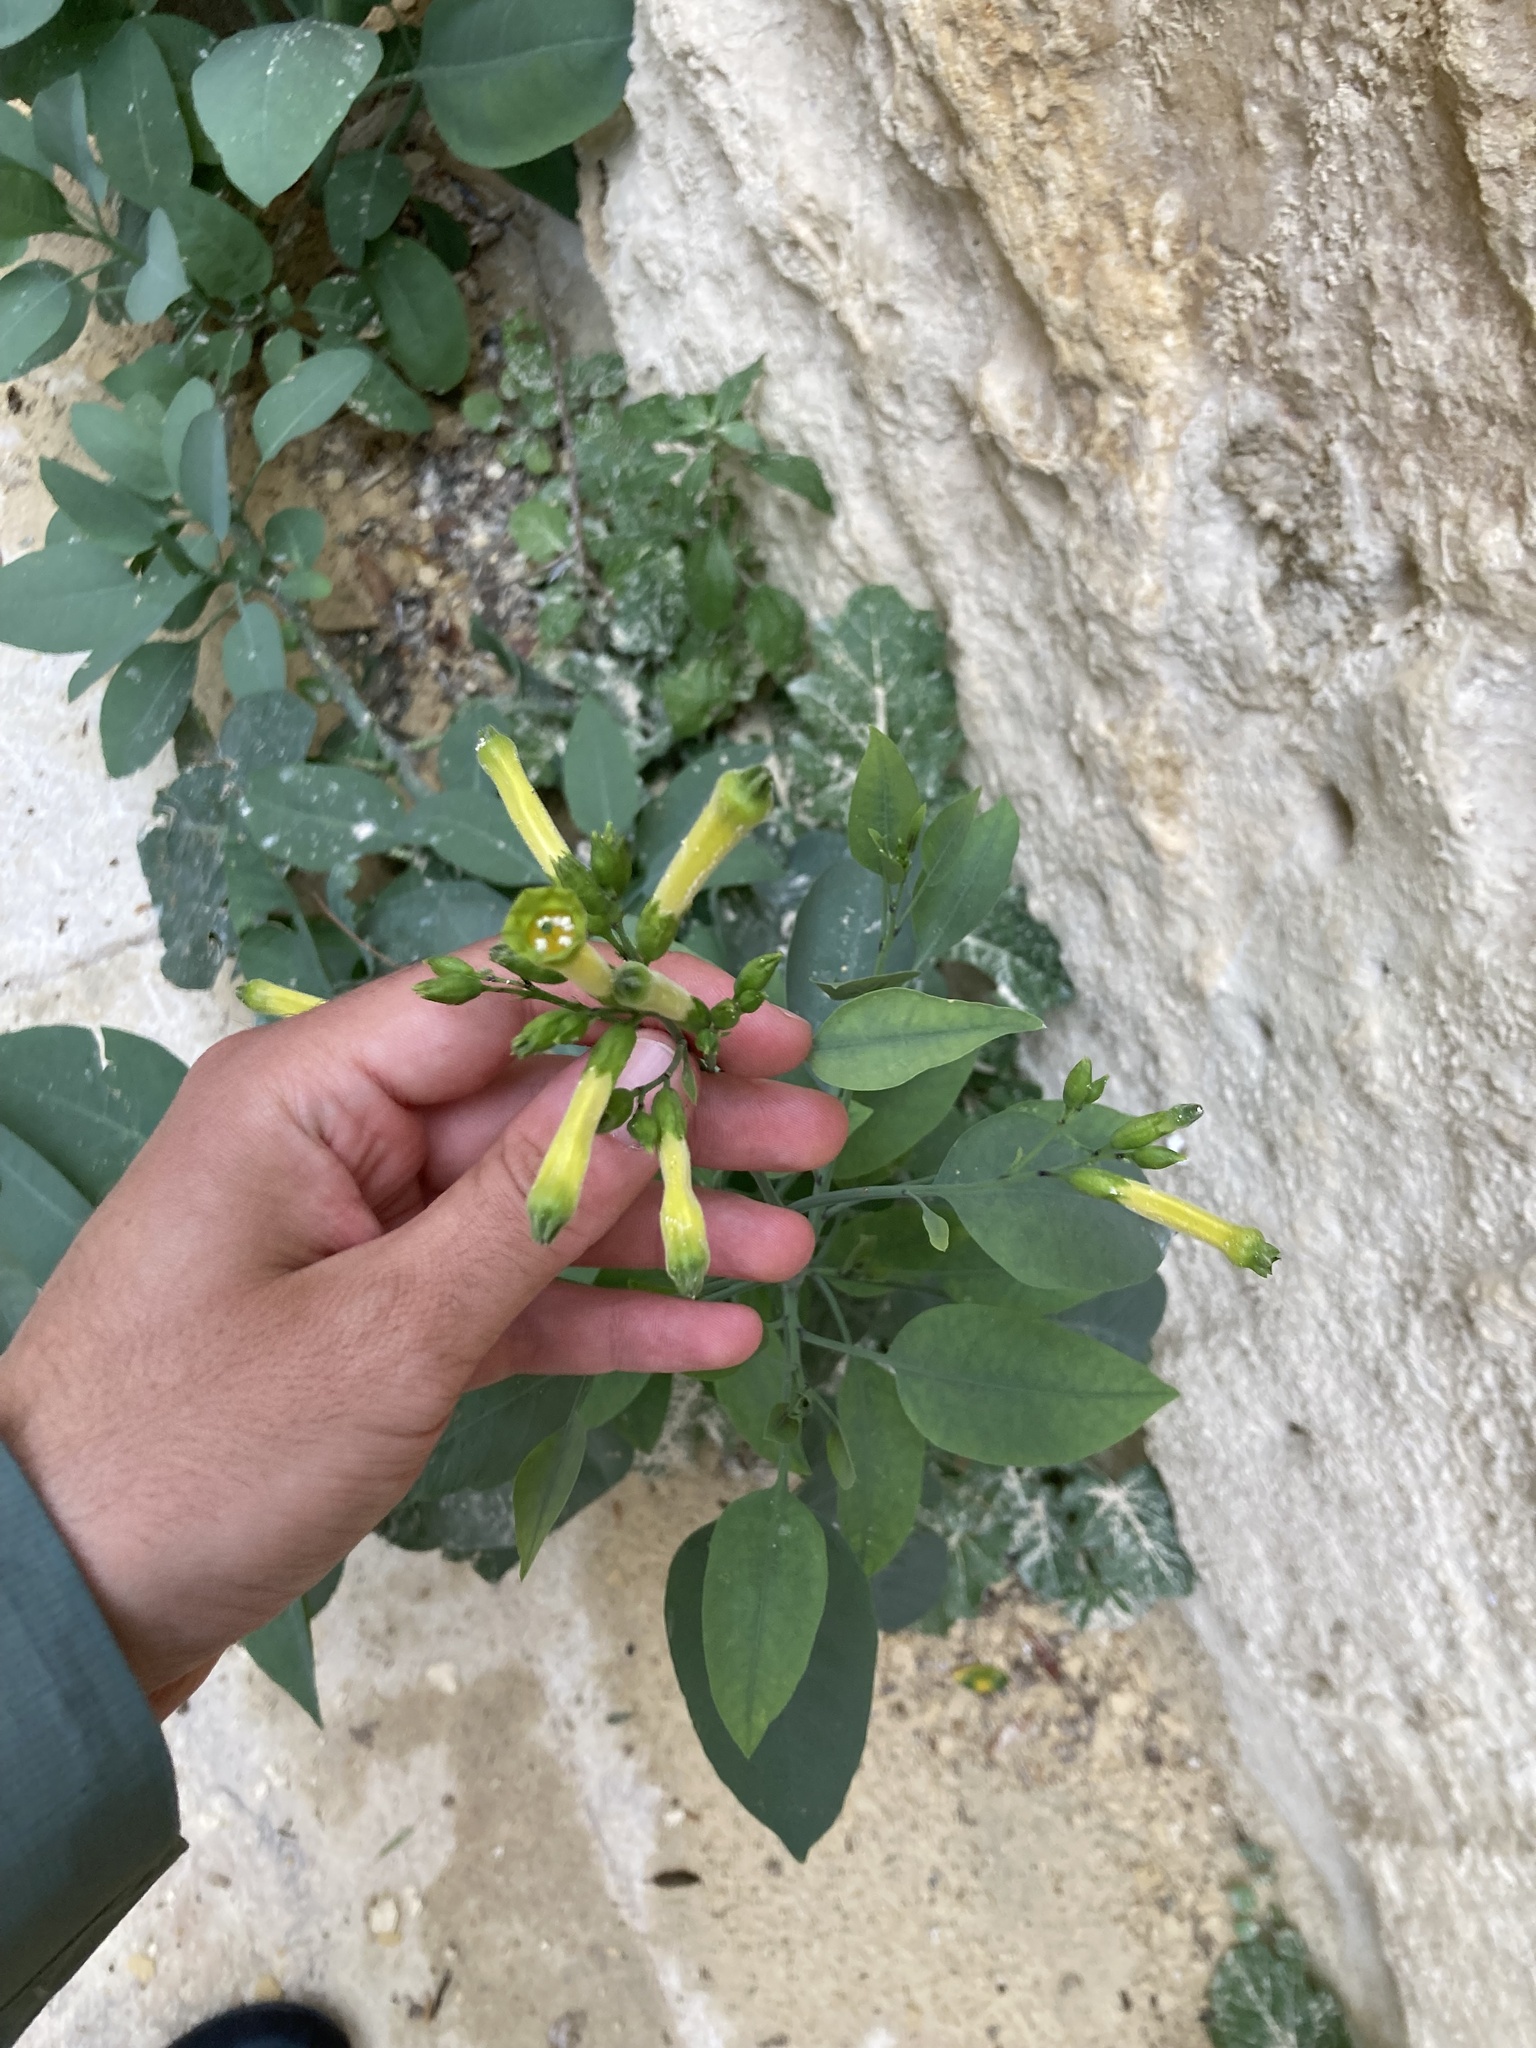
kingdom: Plantae
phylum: Tracheophyta
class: Magnoliopsida
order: Solanales
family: Solanaceae
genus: Nicotiana
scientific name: Nicotiana glauca
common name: Tree tobacco
